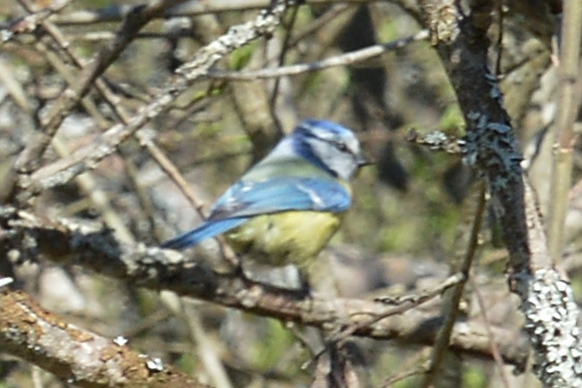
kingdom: Animalia
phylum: Chordata
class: Aves
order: Passeriformes
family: Paridae
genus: Cyanistes
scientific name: Cyanistes caeruleus
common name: Eurasian blue tit
